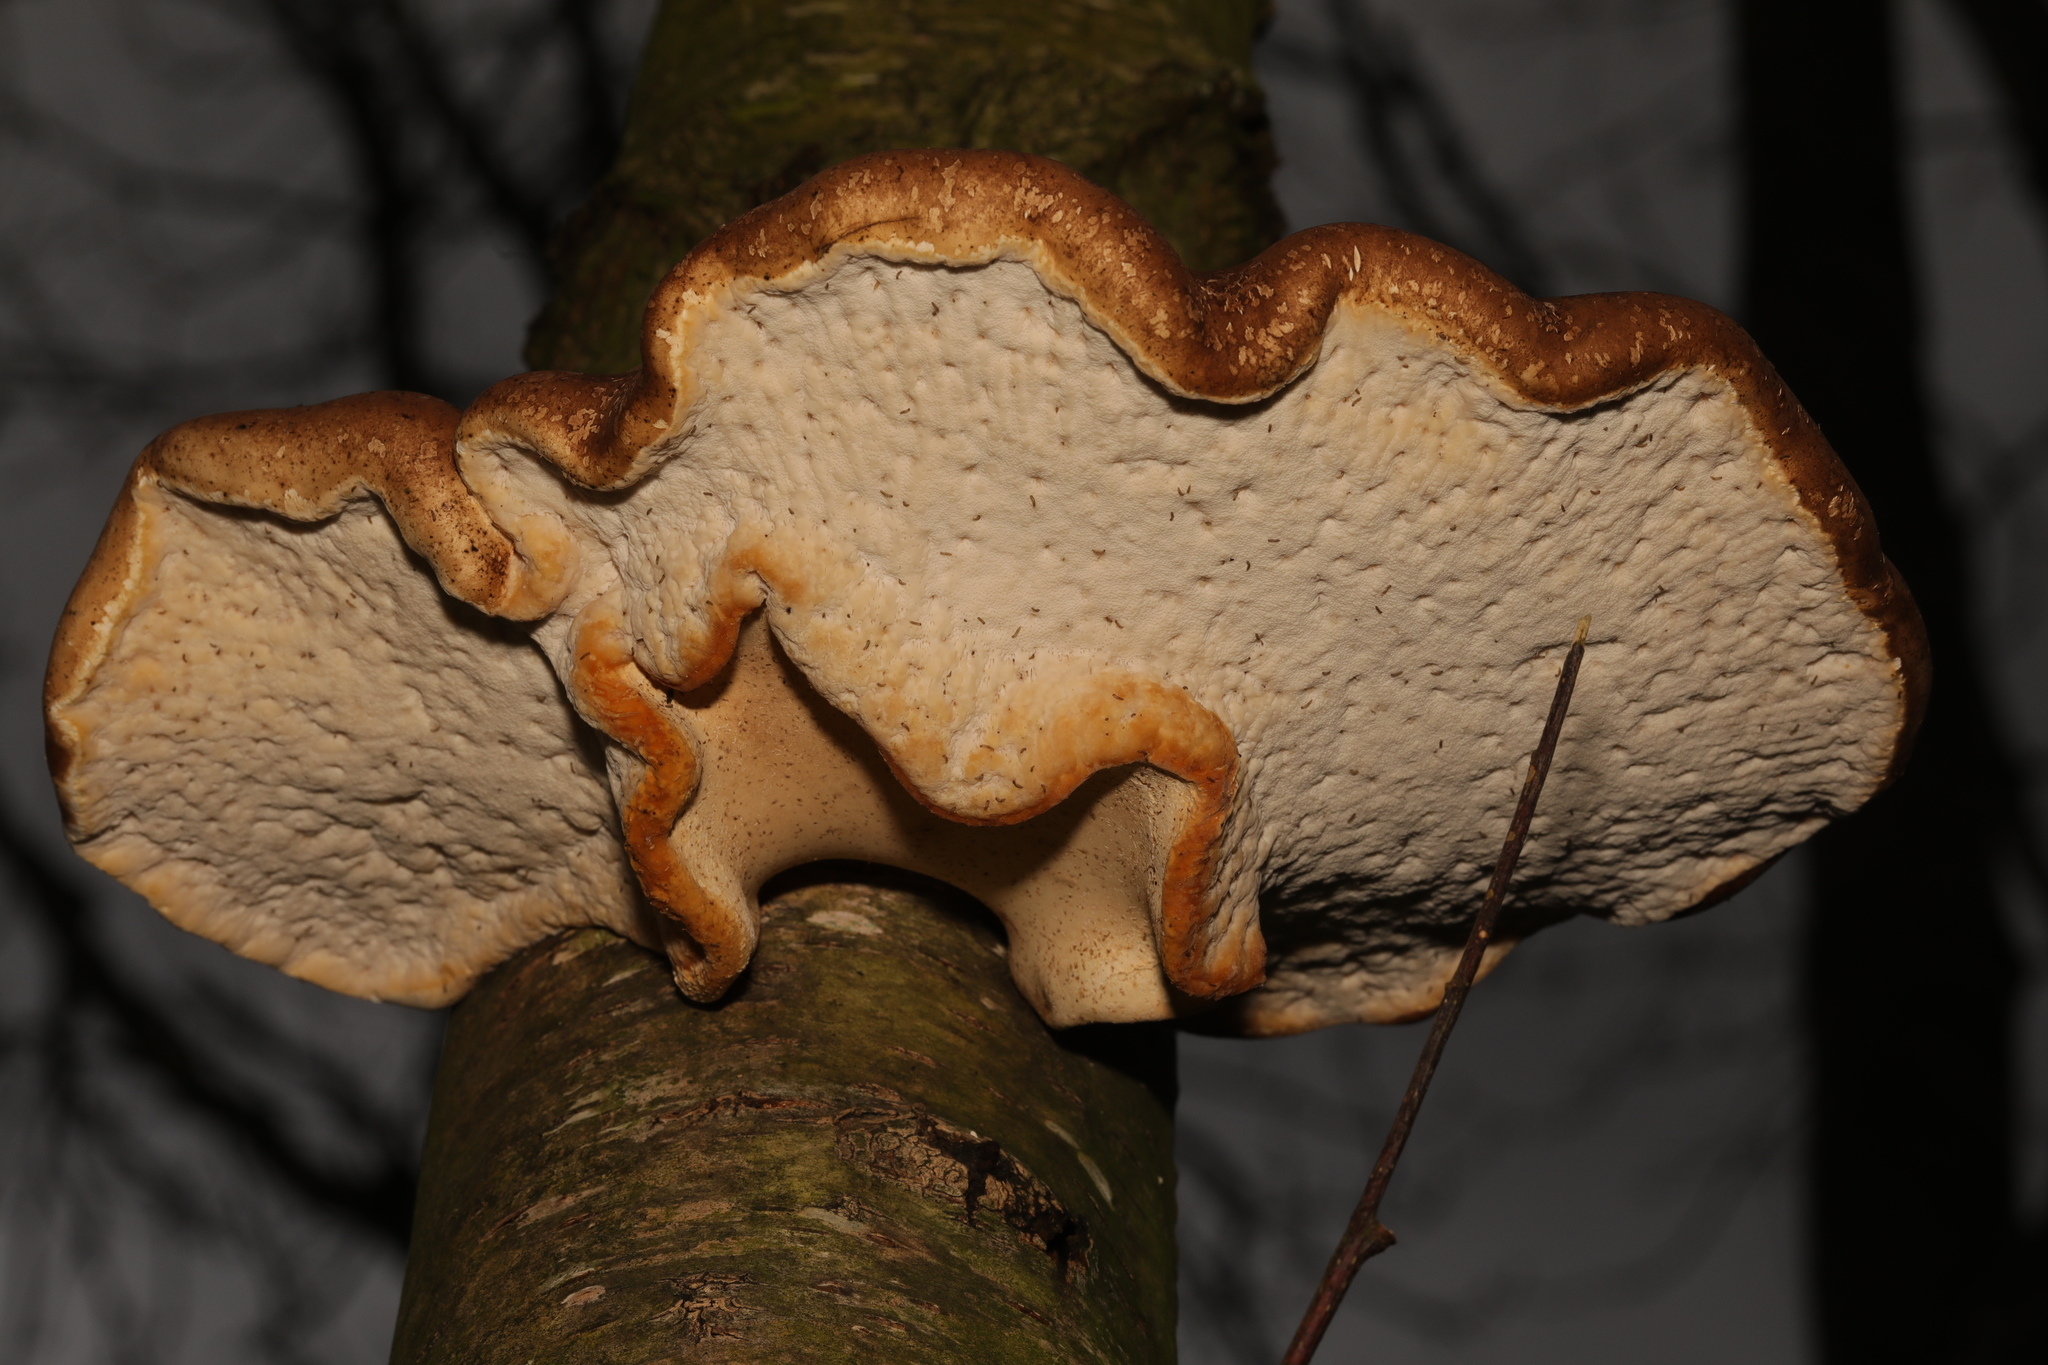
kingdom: Fungi
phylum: Basidiomycota
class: Agaricomycetes
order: Polyporales
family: Fomitopsidaceae
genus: Fomitopsis
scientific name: Fomitopsis betulina
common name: Birch polypore
